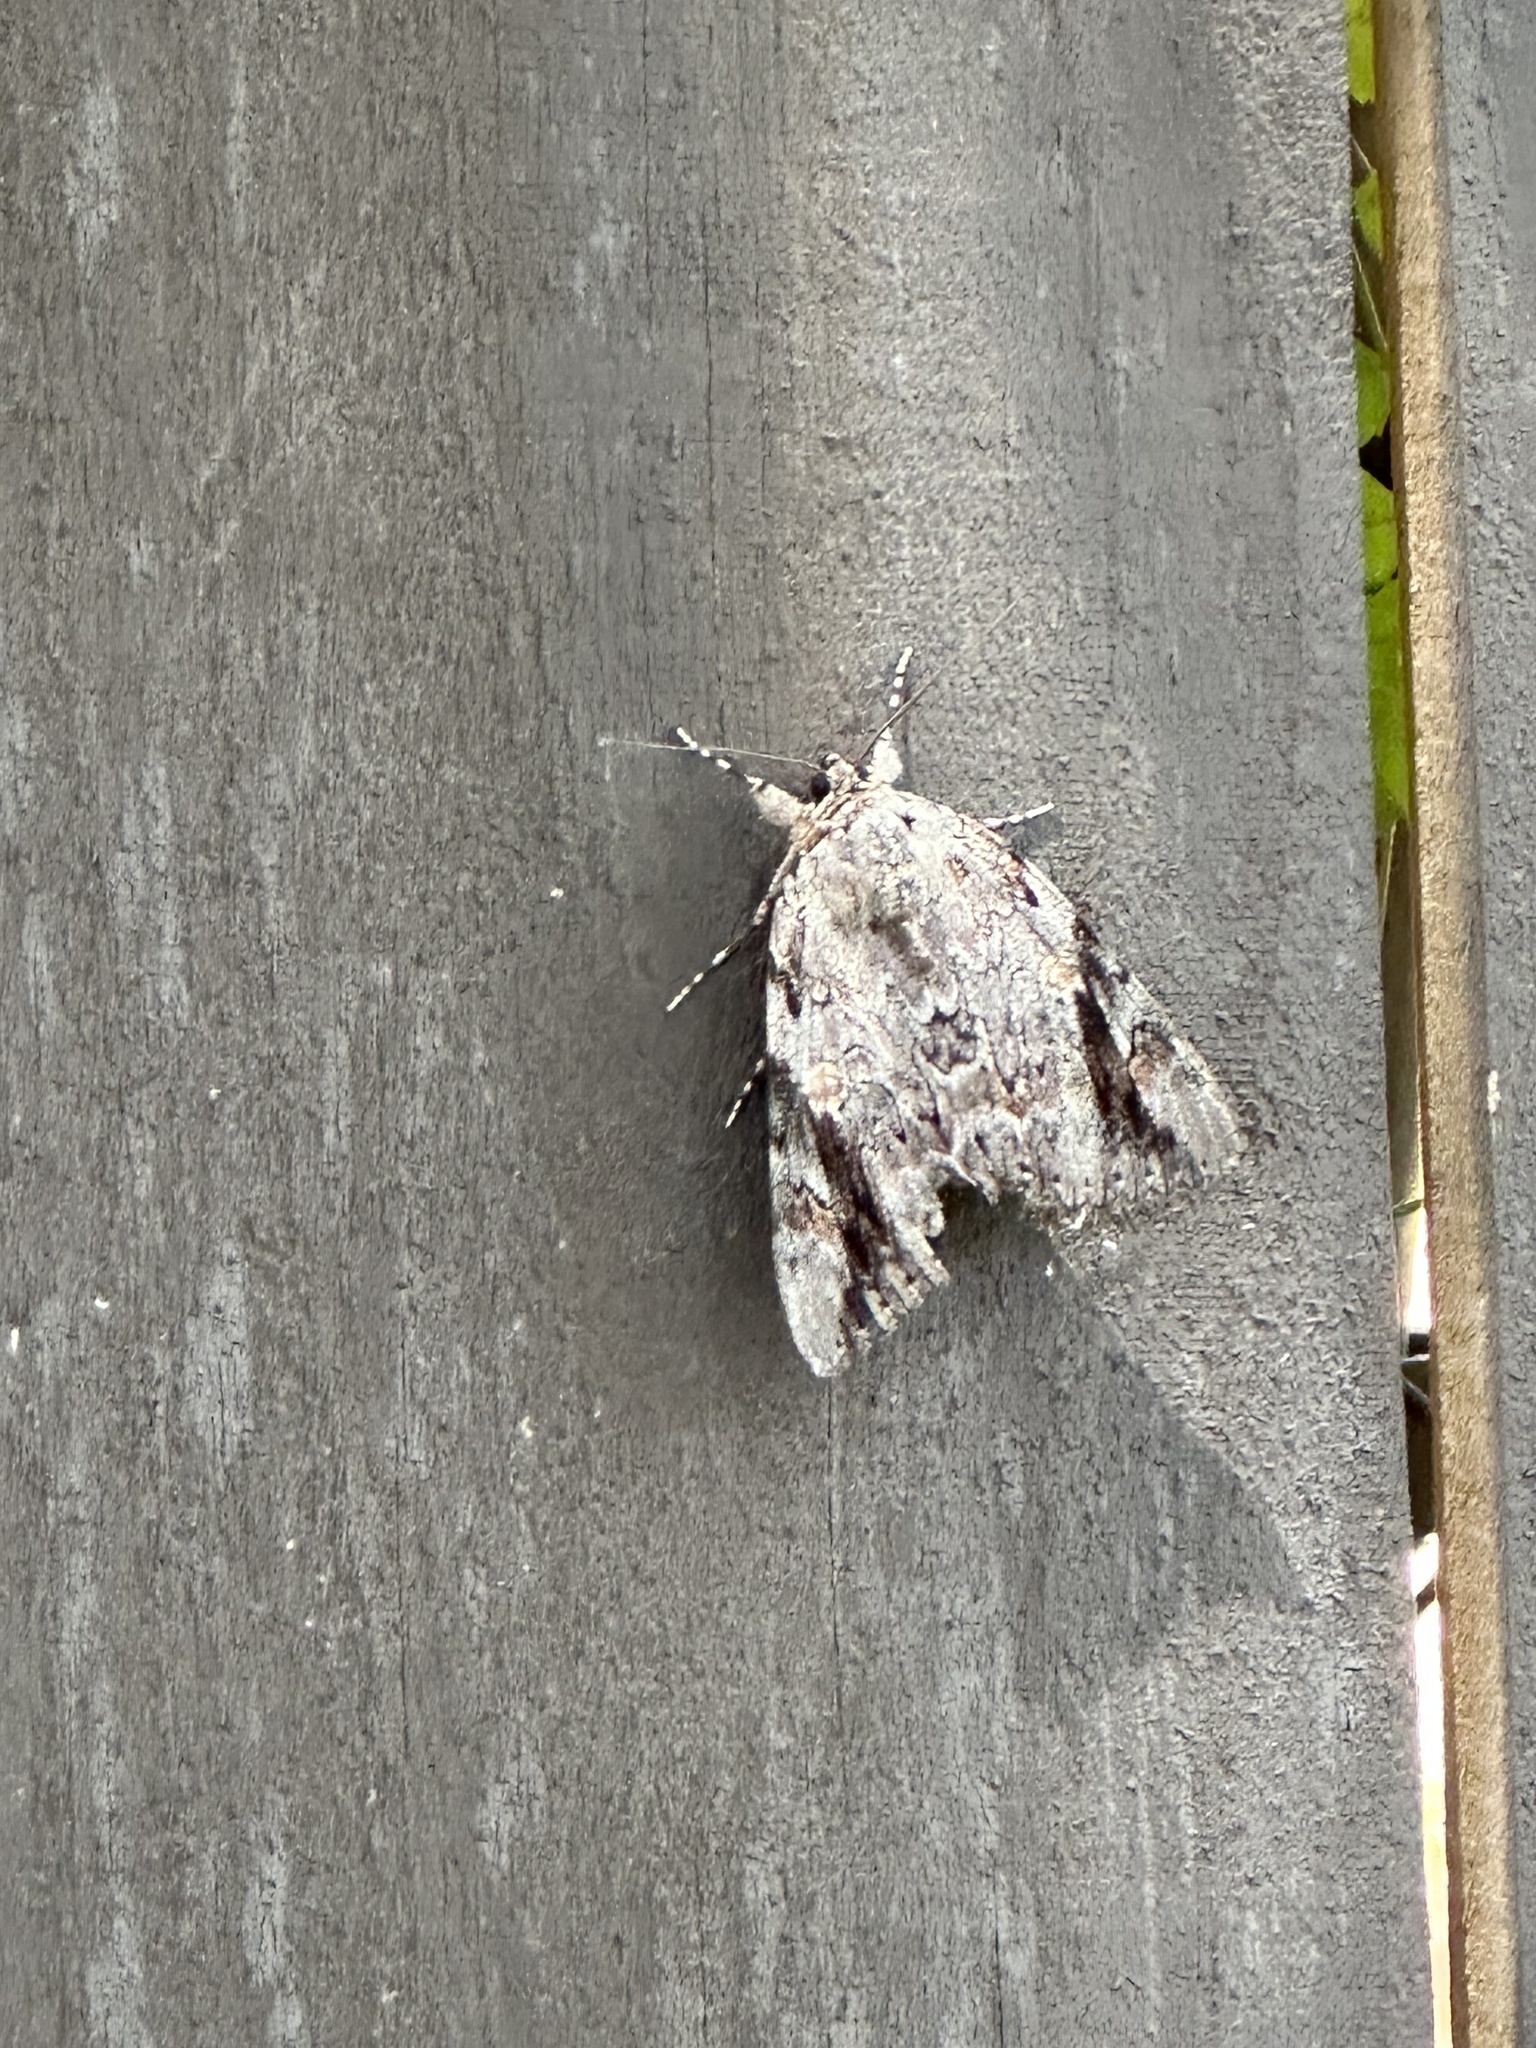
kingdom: Animalia
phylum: Arthropoda
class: Insecta
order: Lepidoptera
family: Erebidae
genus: Catocala
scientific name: Catocala maestosa
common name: Sad underwing
